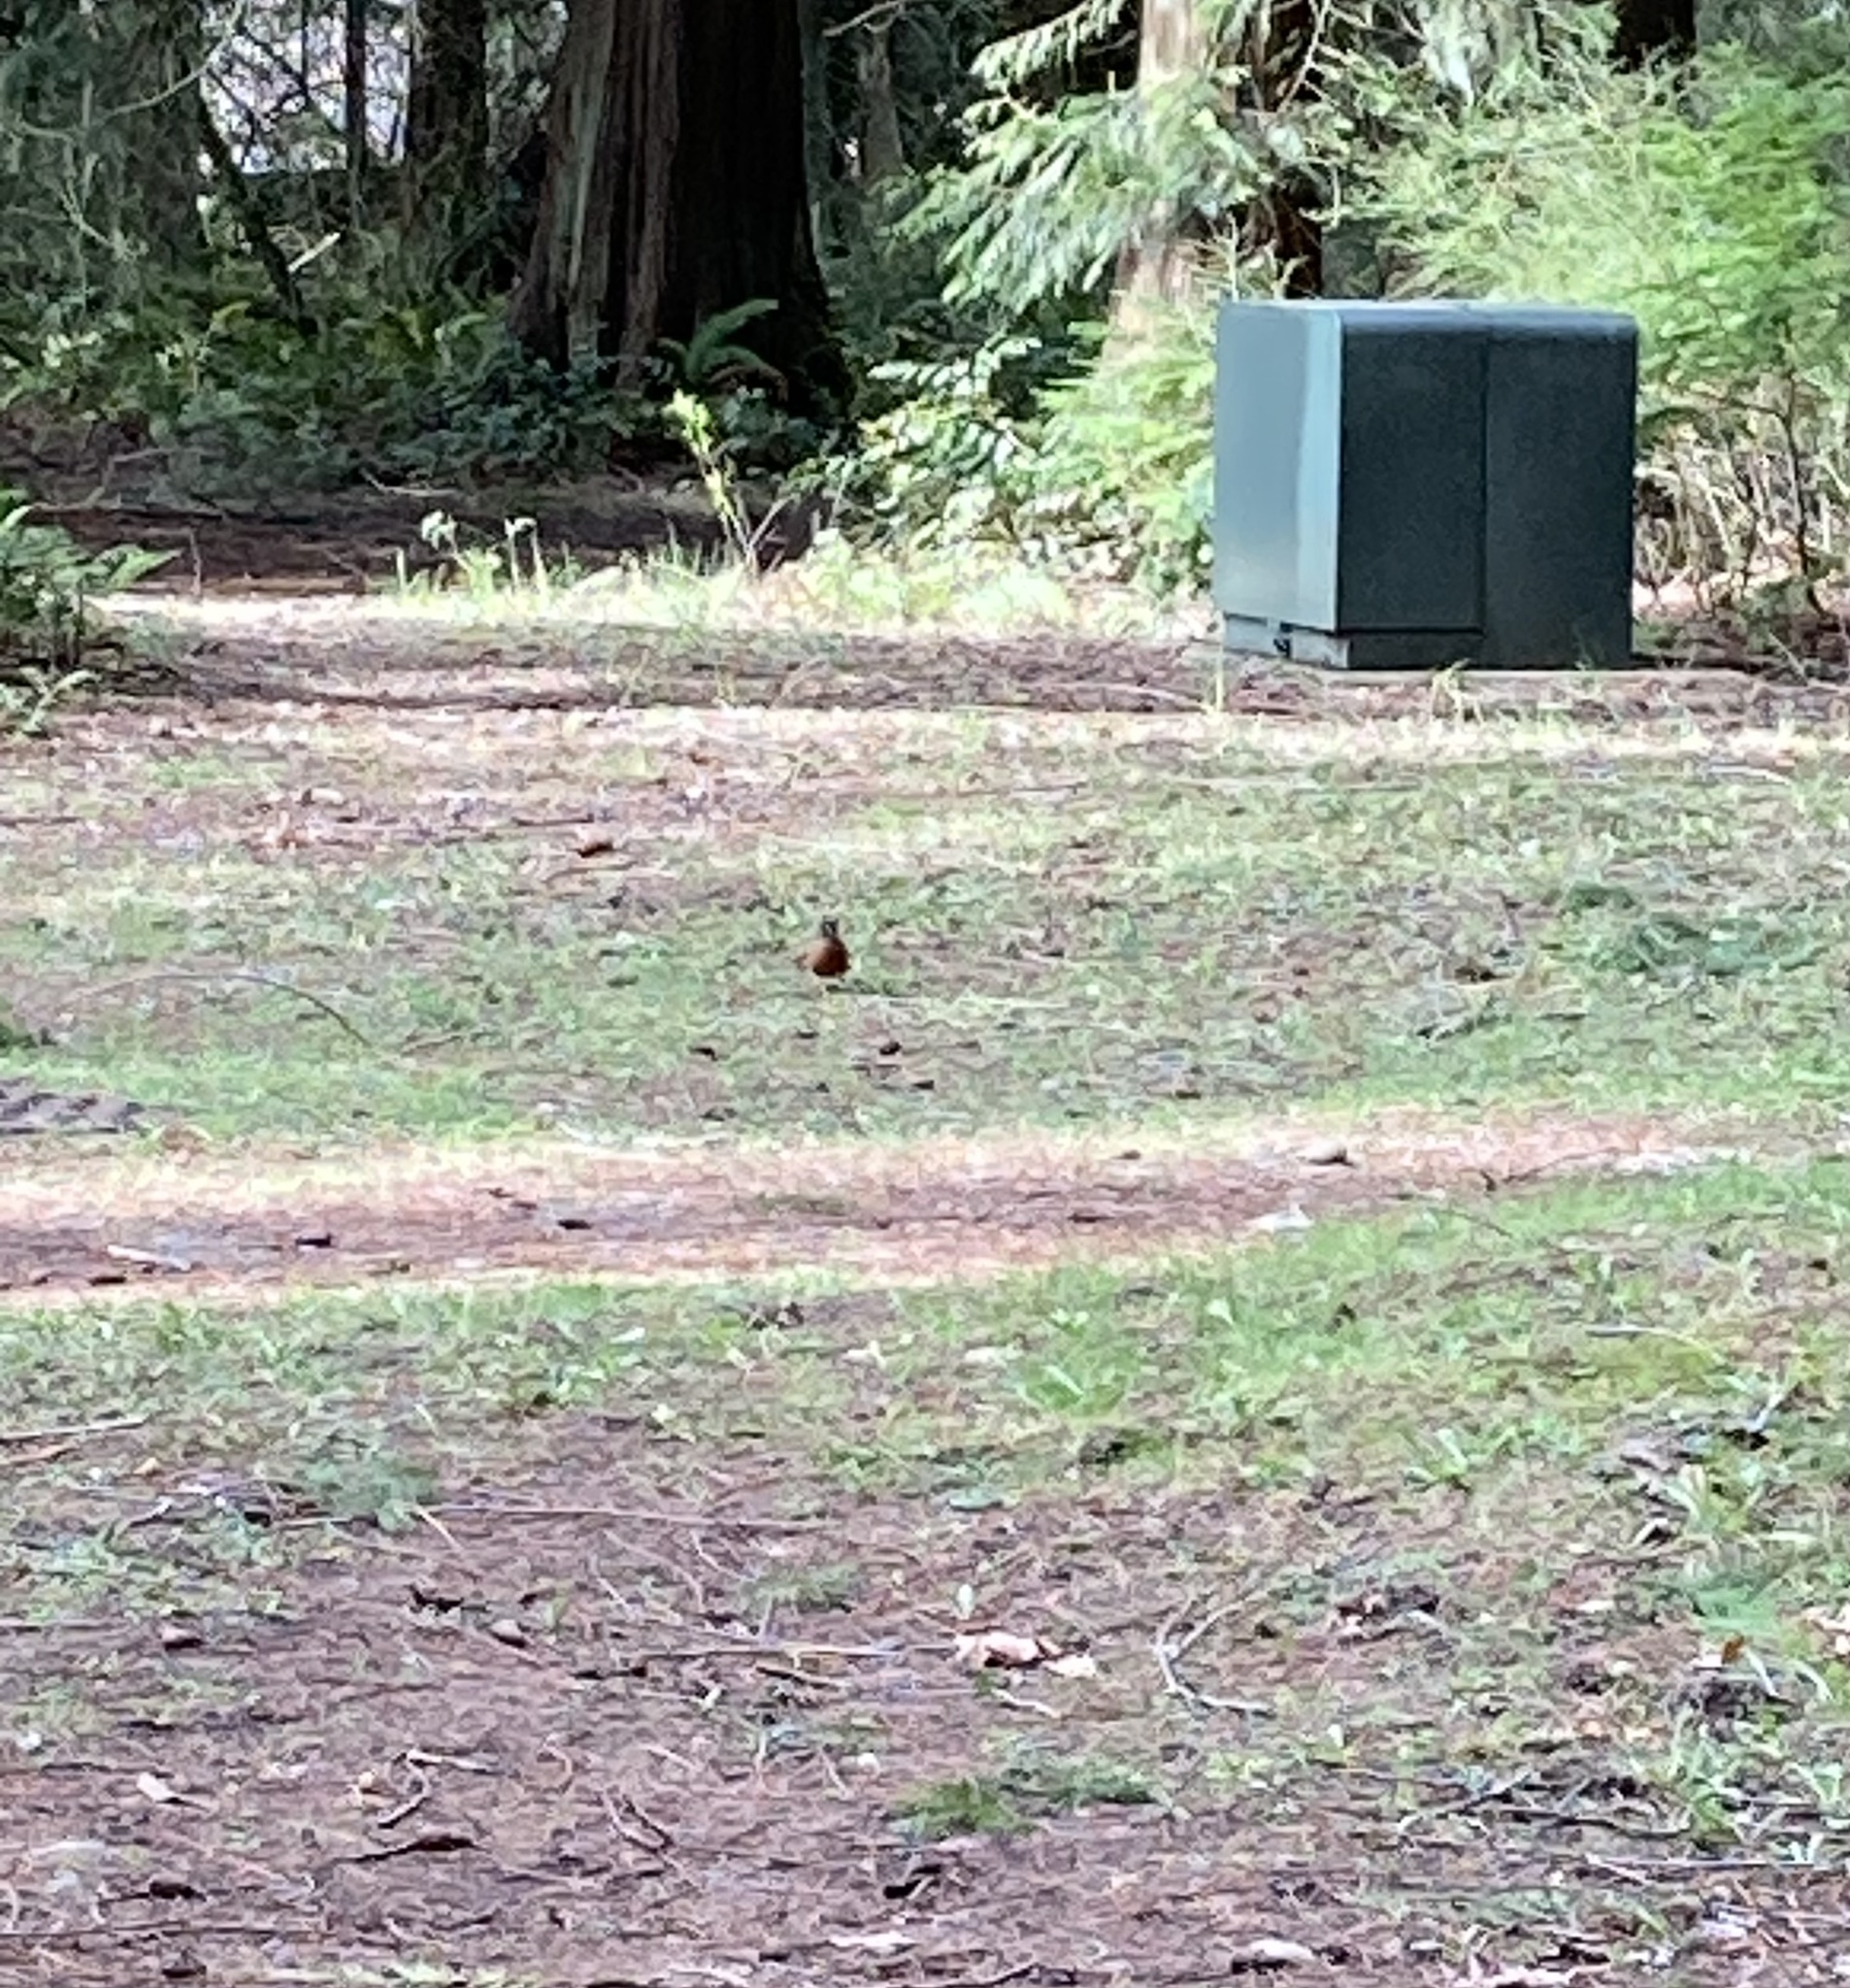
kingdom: Animalia
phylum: Chordata
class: Aves
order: Passeriformes
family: Turdidae
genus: Turdus
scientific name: Turdus migratorius
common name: American robin
